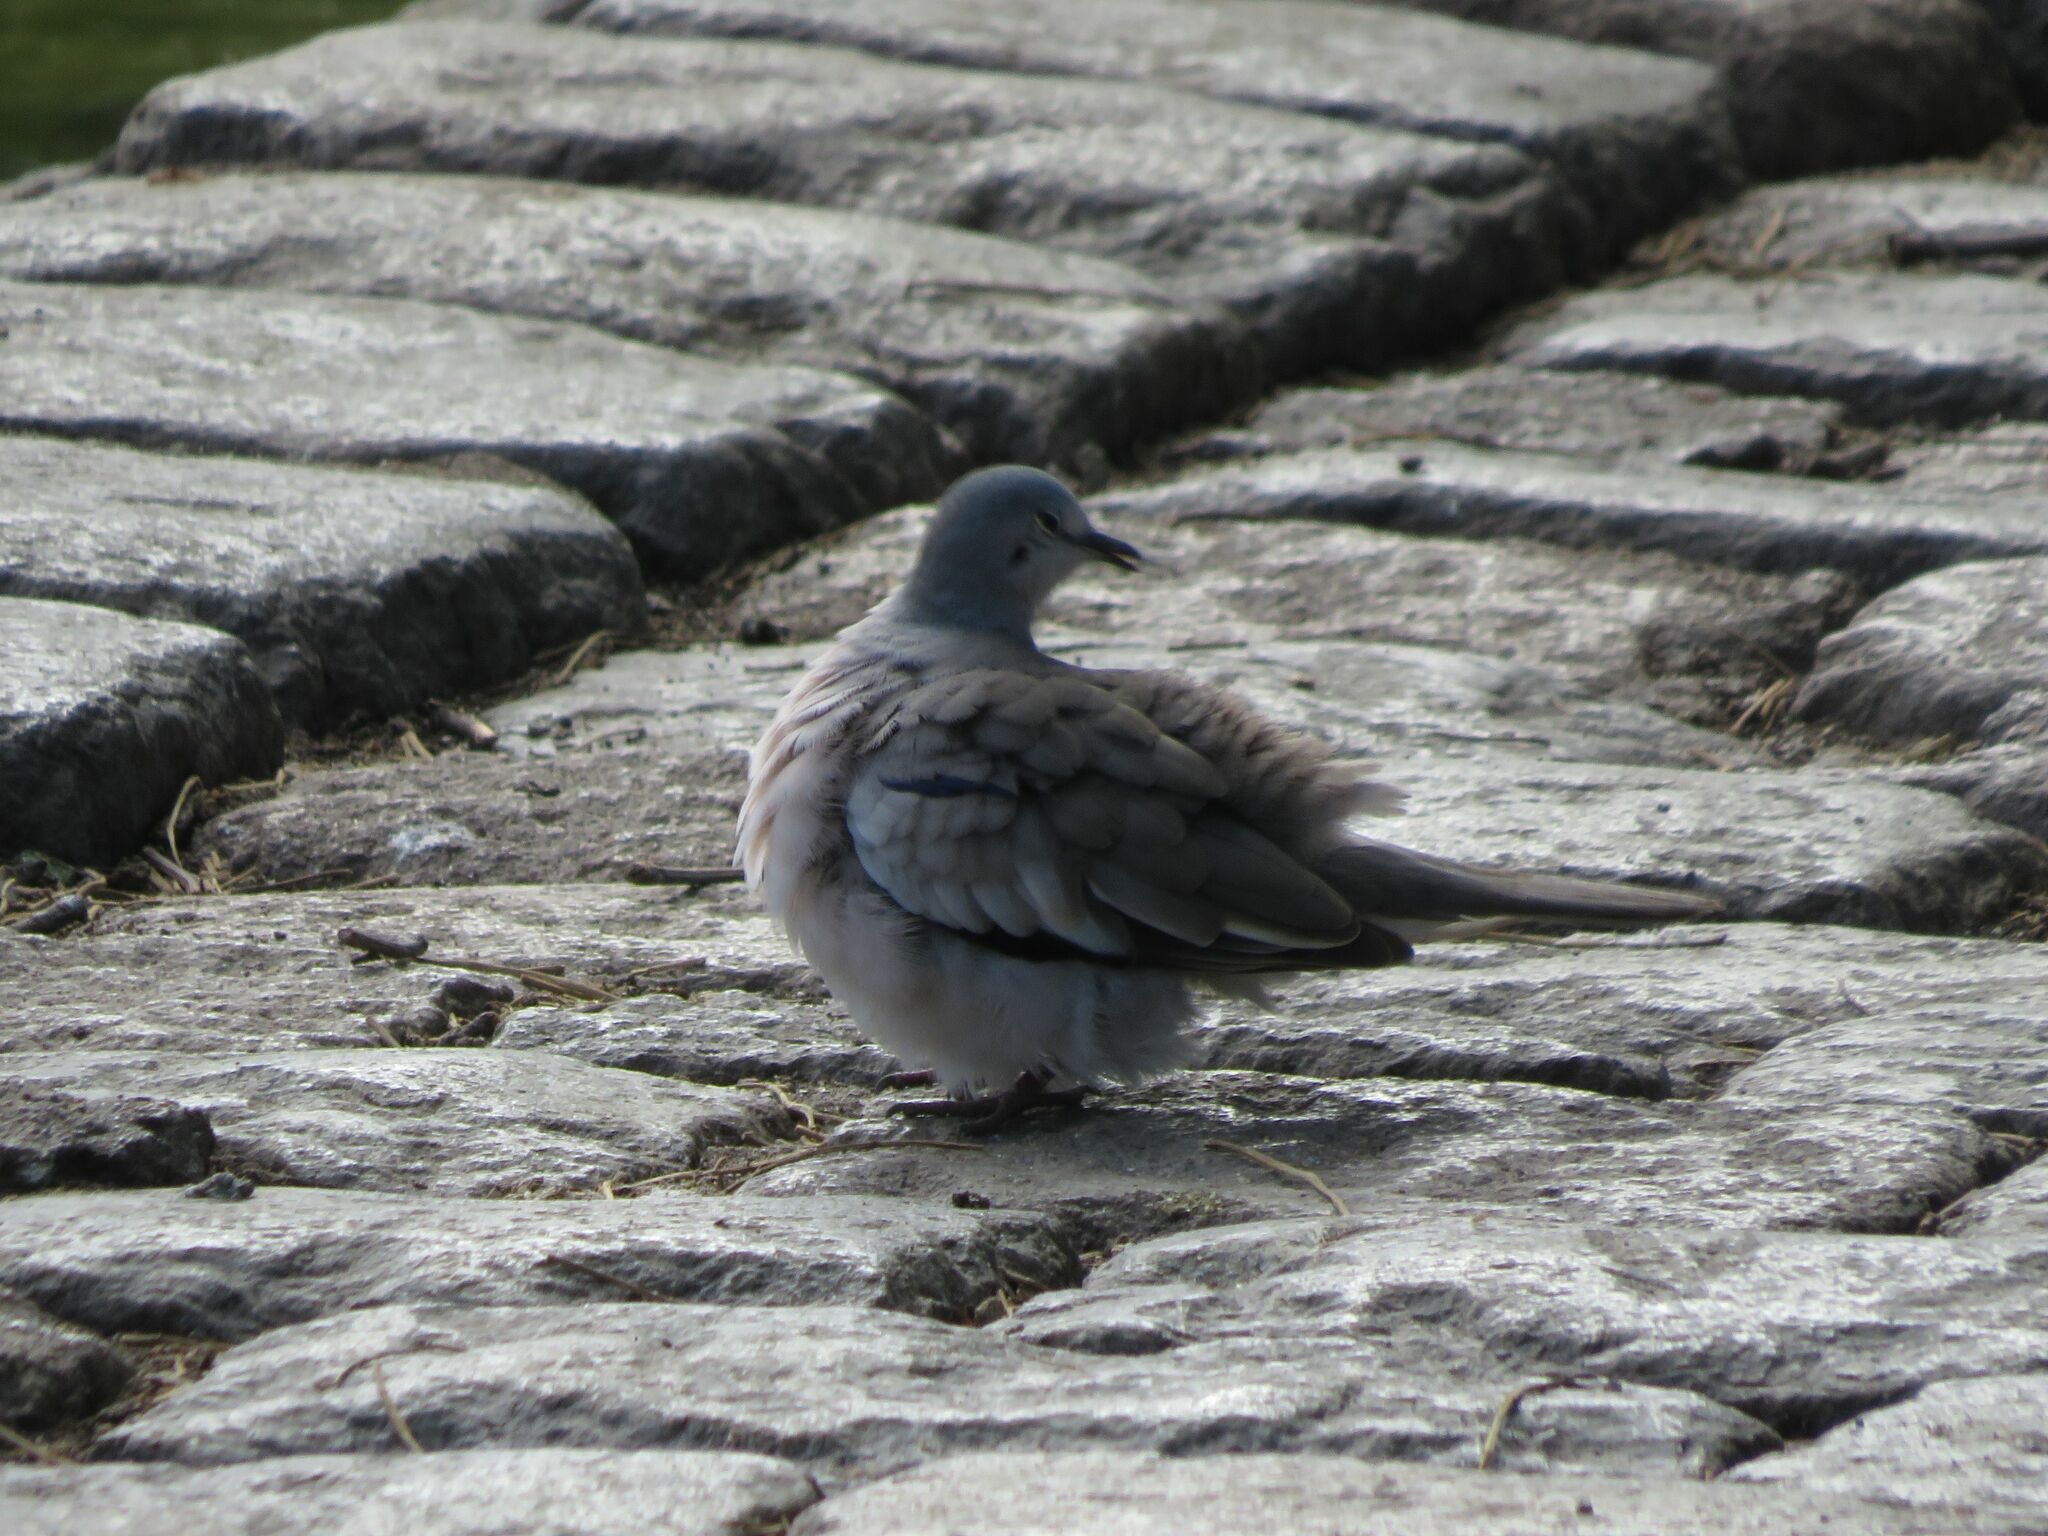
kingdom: Animalia
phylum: Chordata
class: Aves
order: Columbiformes
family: Columbidae
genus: Columbina
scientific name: Columbina picui
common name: Picui ground dove
